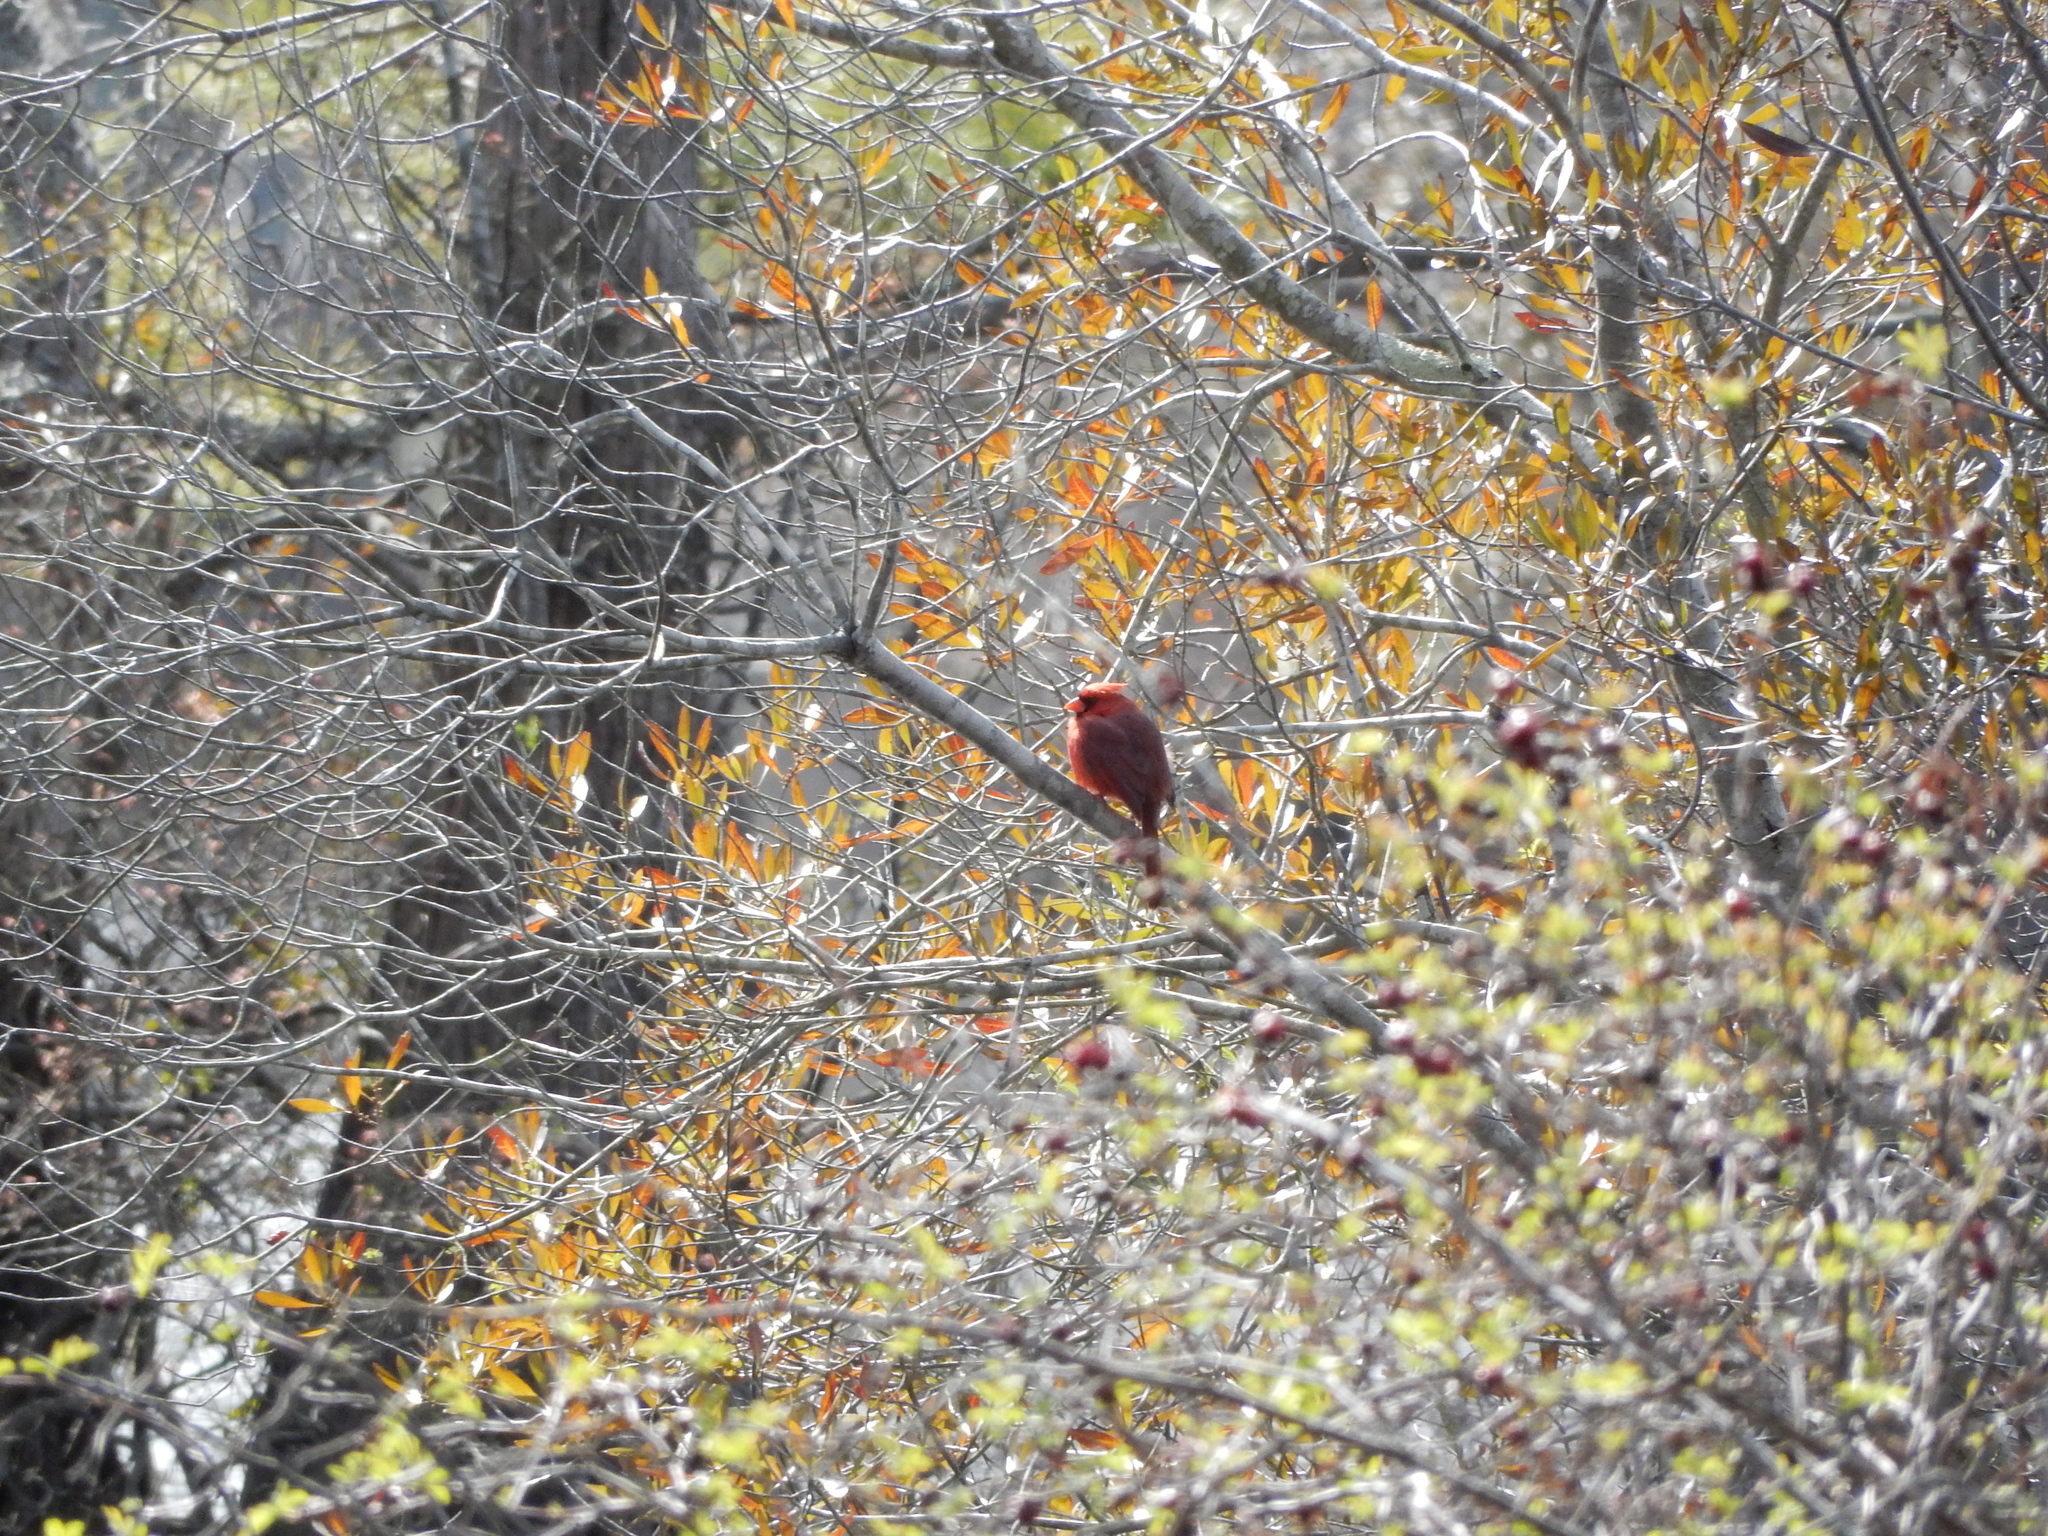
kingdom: Animalia
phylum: Chordata
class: Aves
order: Passeriformes
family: Cardinalidae
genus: Cardinalis
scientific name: Cardinalis cardinalis
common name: Northern cardinal
